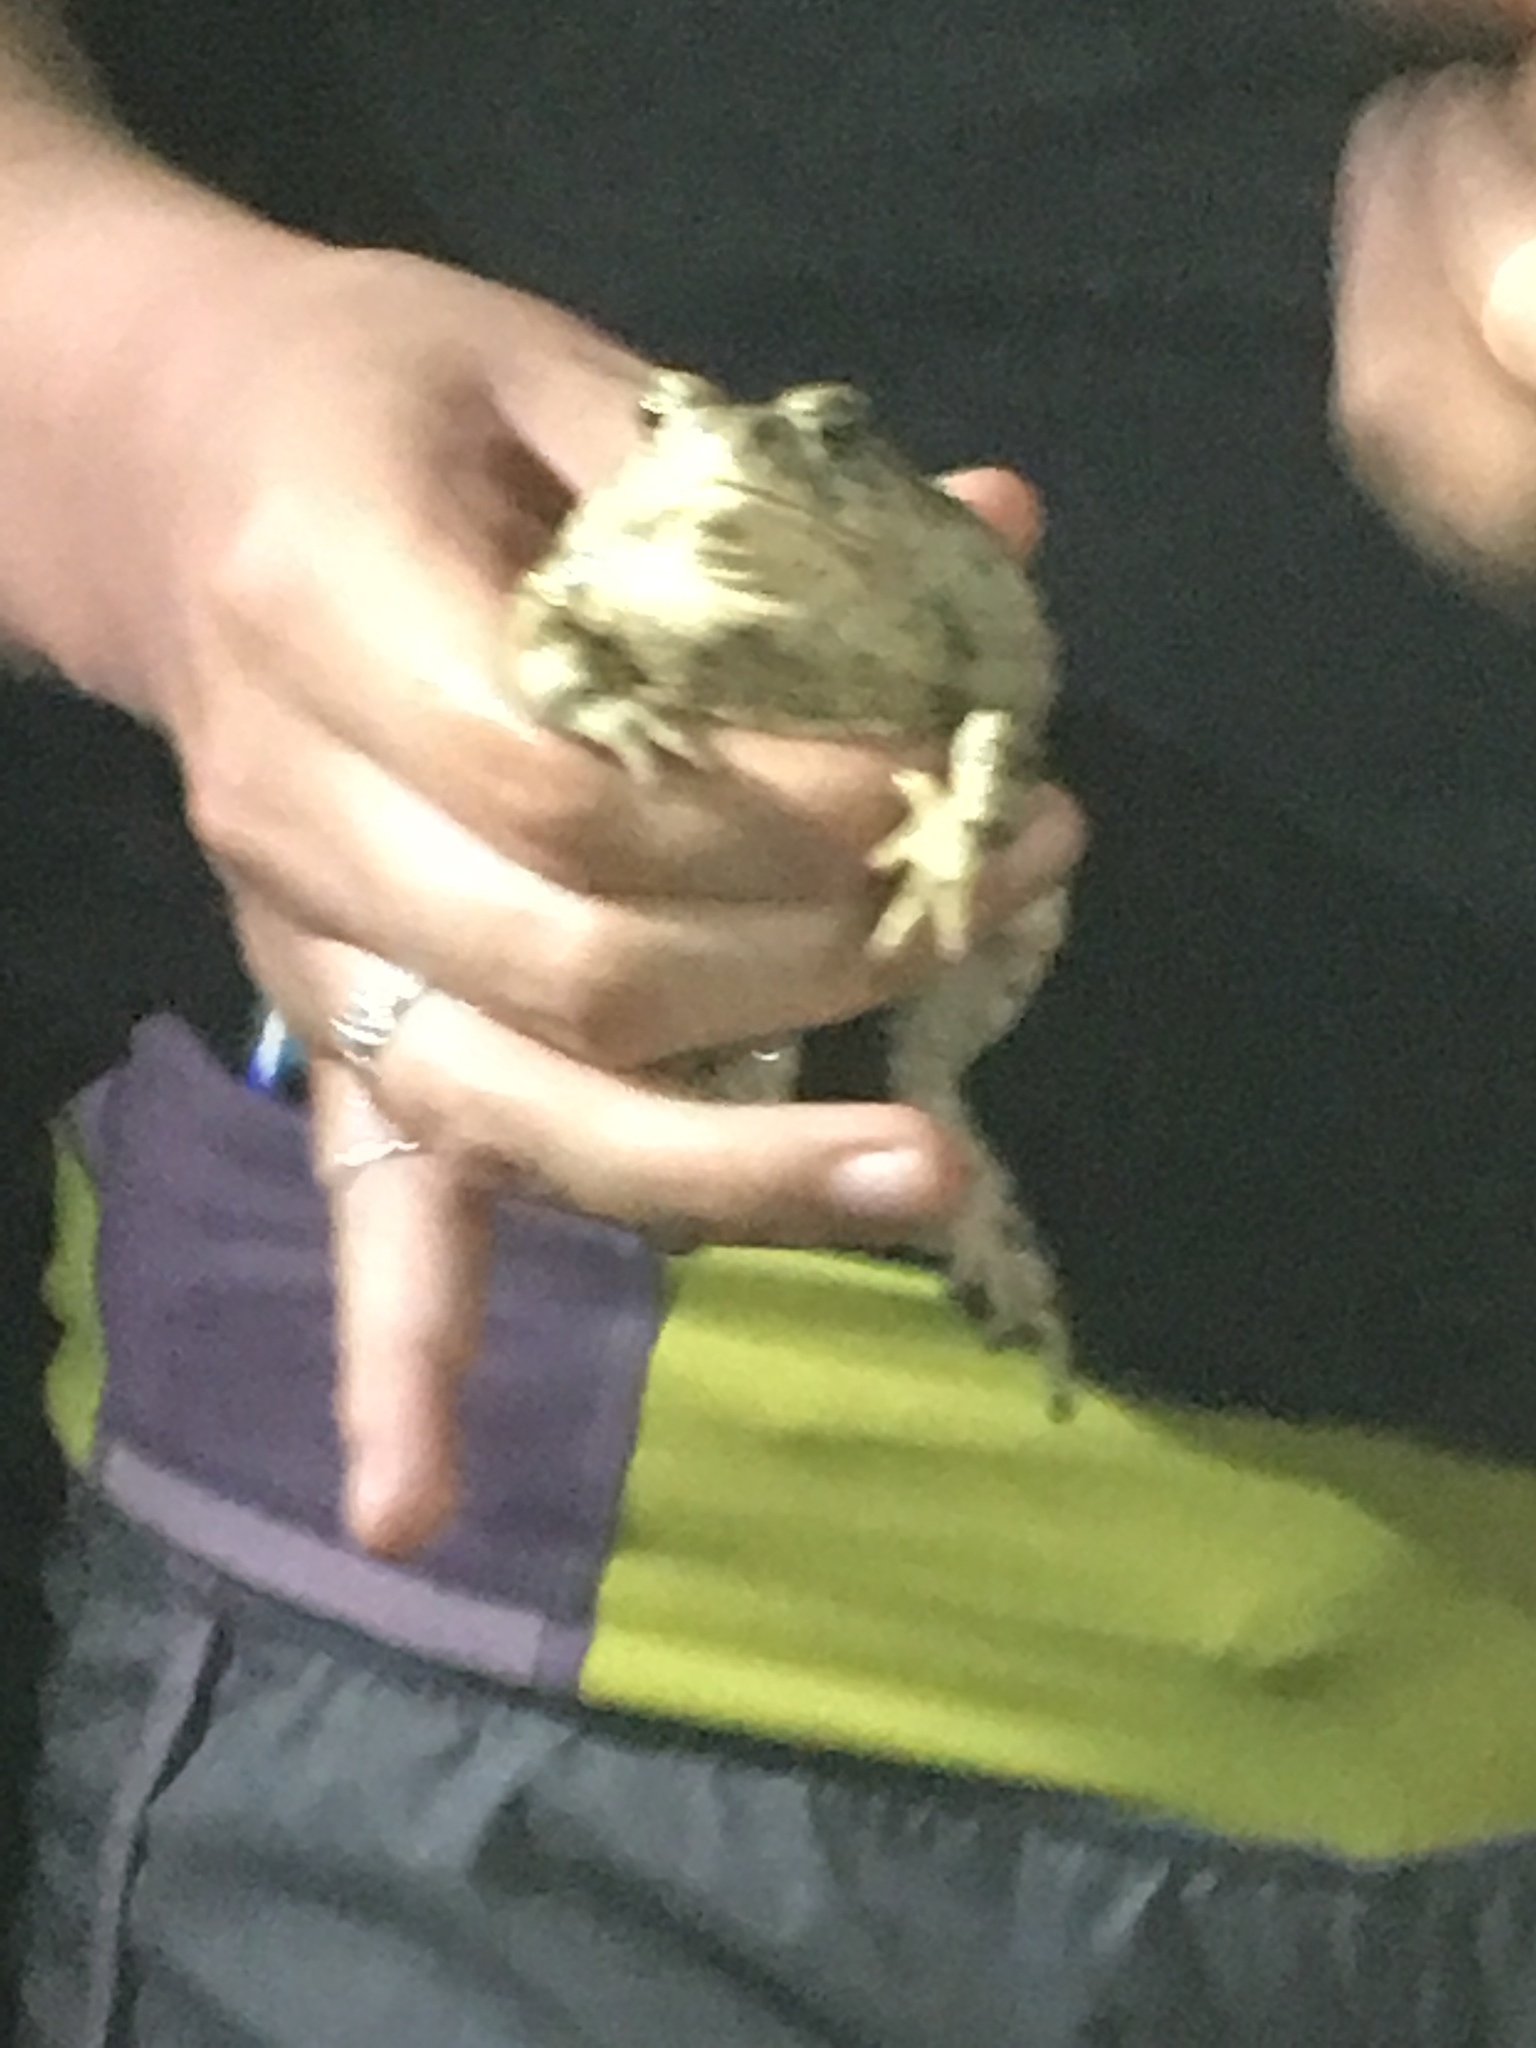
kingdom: Animalia
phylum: Chordata
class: Amphibia
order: Anura
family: Bufonidae
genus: Anaxyrus
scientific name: Anaxyrus boreas
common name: Western toad
